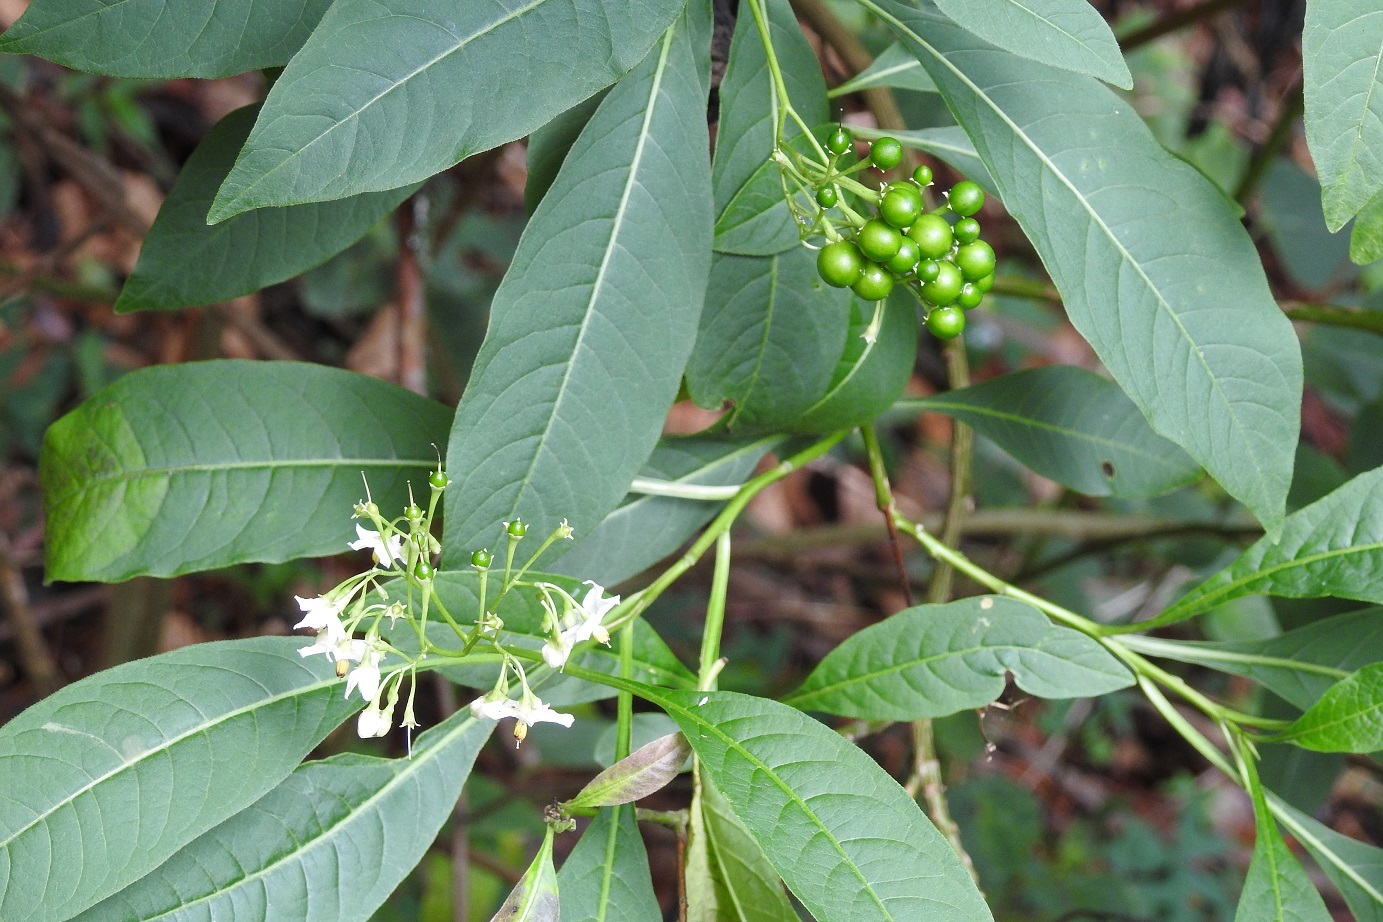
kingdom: Plantae
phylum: Tracheophyta
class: Magnoliopsida
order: Solanales
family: Solanaceae
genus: Solanum
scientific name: Solanum pubigerum
